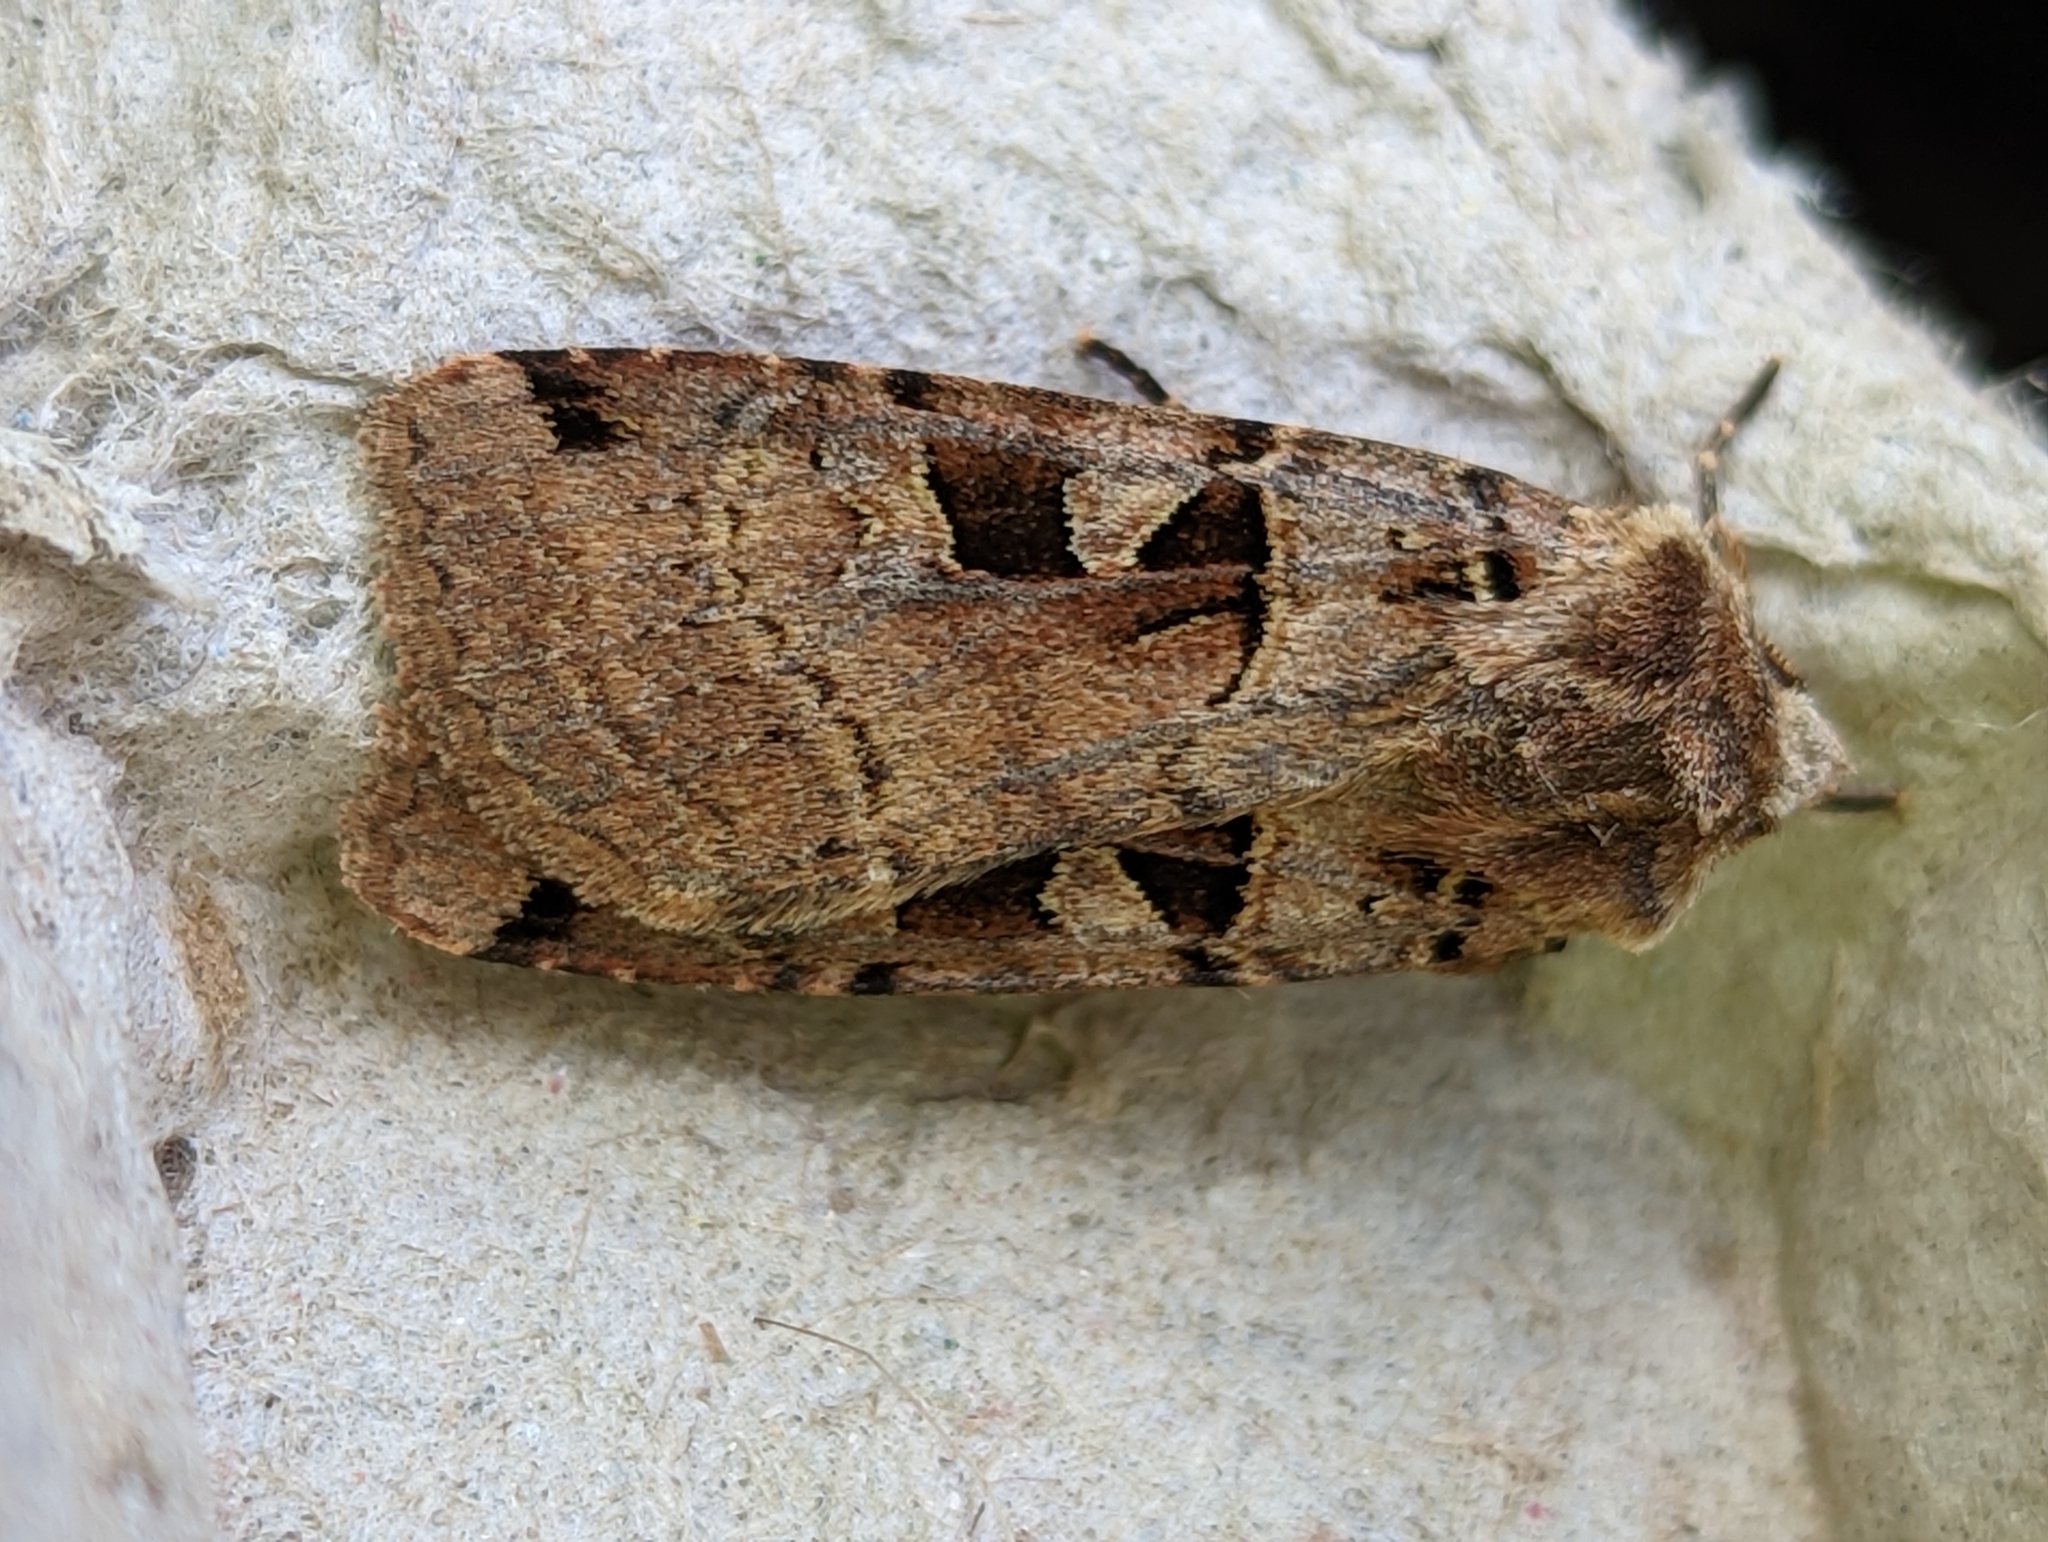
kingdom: Animalia
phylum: Arthropoda
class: Insecta
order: Lepidoptera
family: Noctuidae
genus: Xestia
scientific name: Xestia triangulum
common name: Double square-spot
